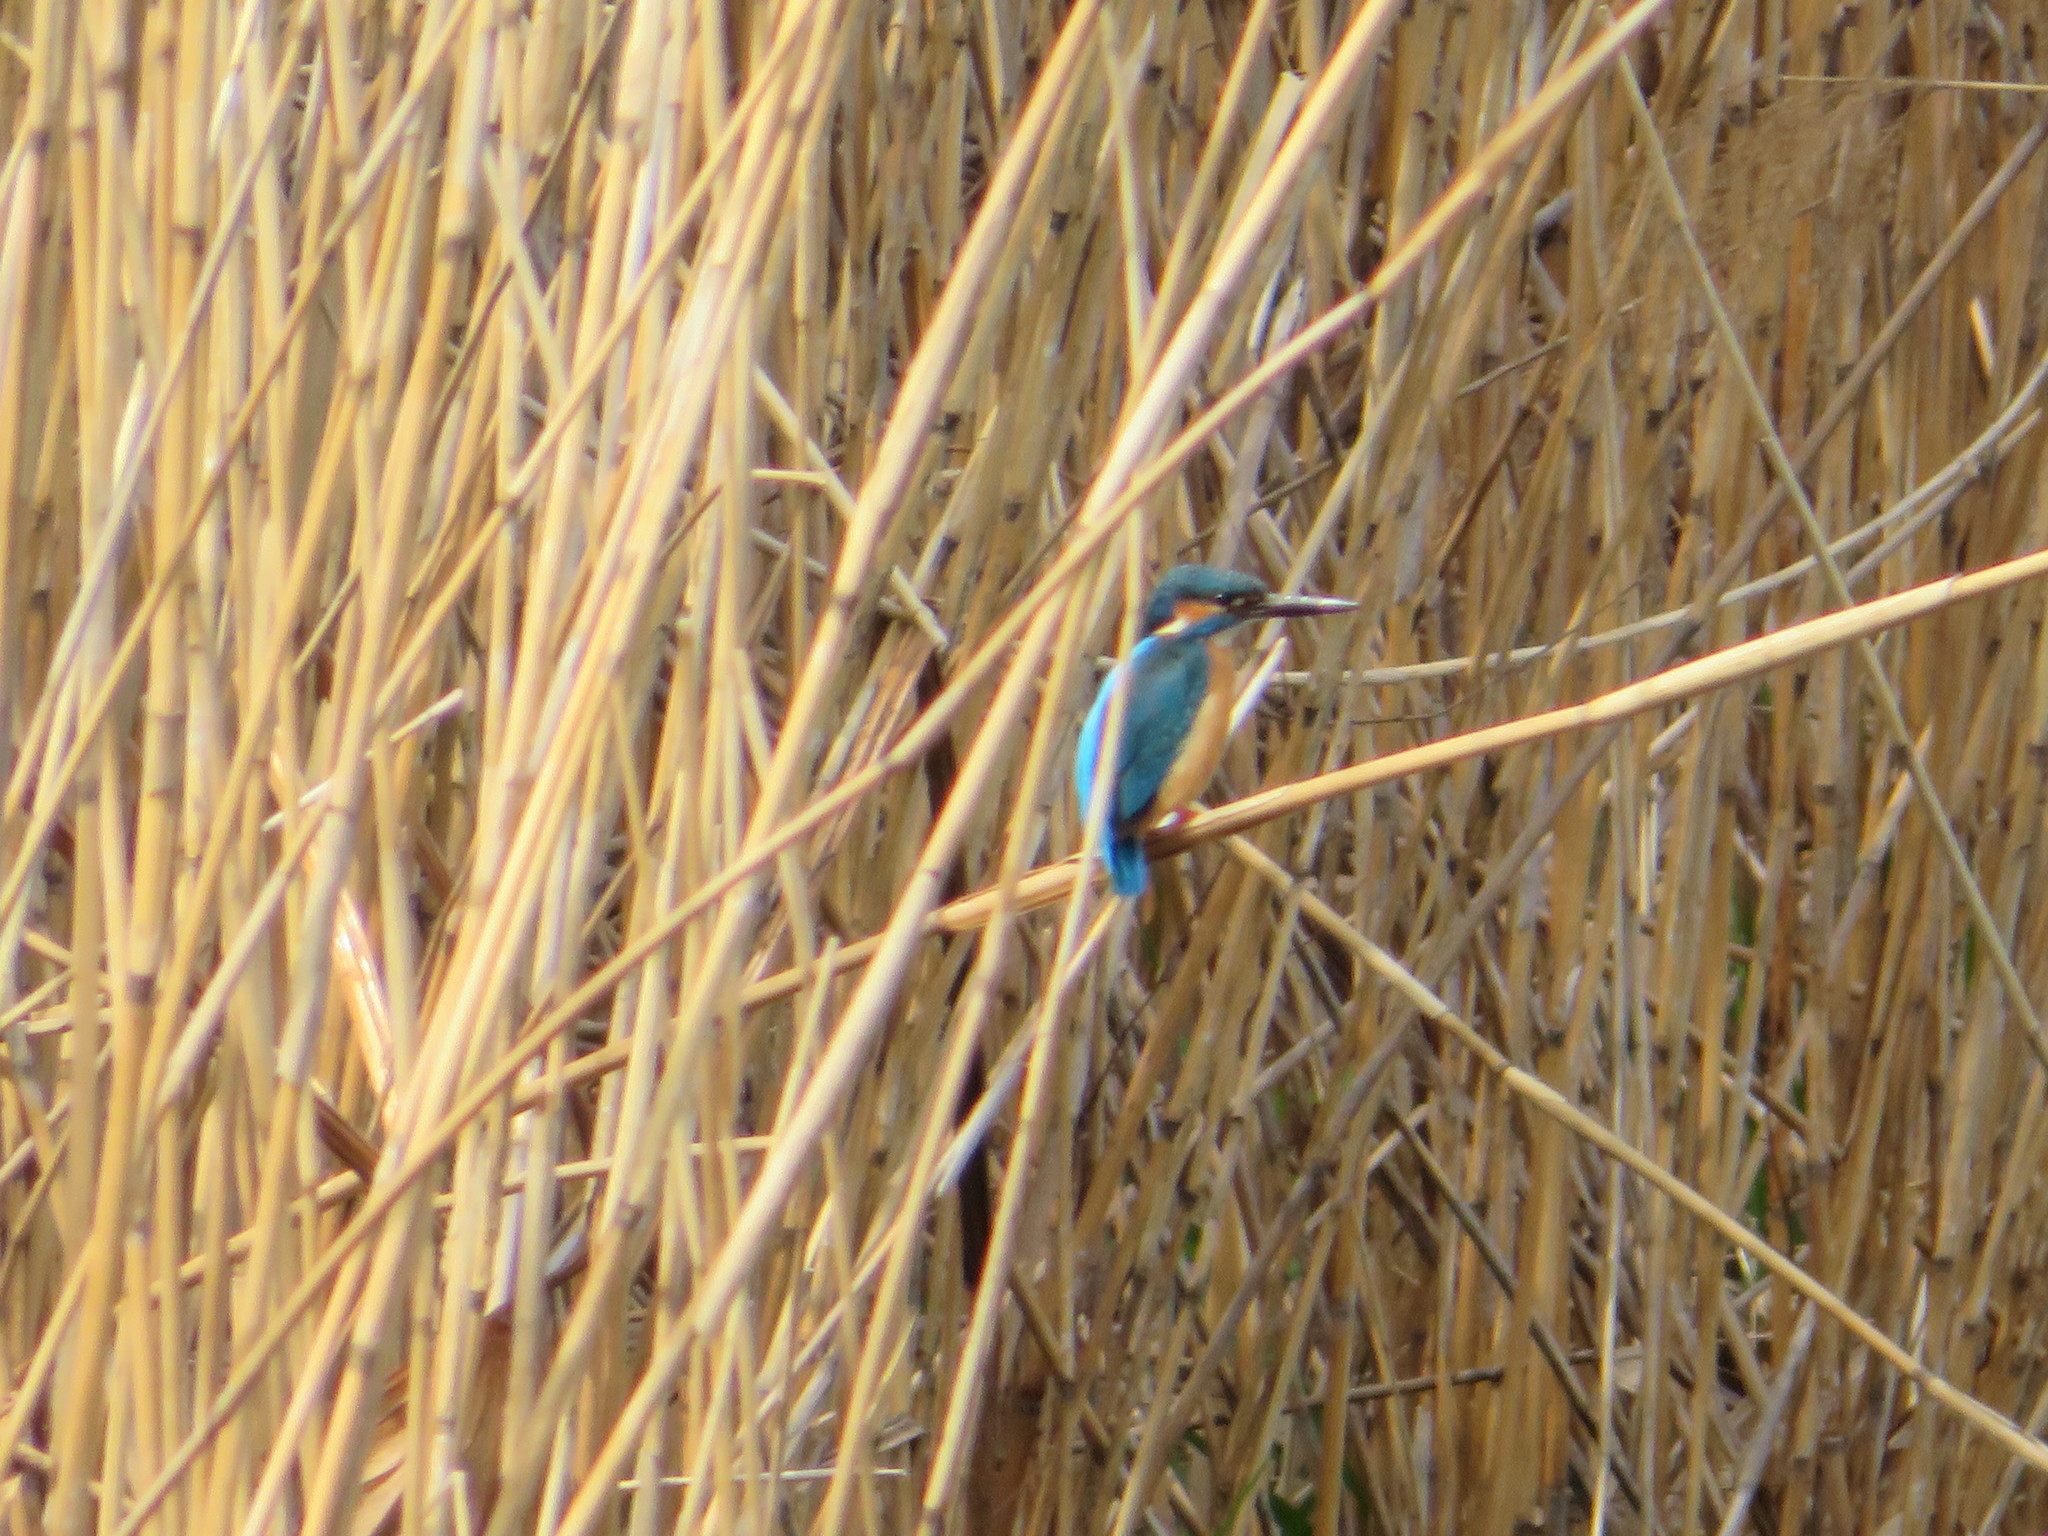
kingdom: Animalia
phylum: Chordata
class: Aves
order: Coraciiformes
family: Alcedinidae
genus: Alcedo
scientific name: Alcedo atthis
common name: Common kingfisher
